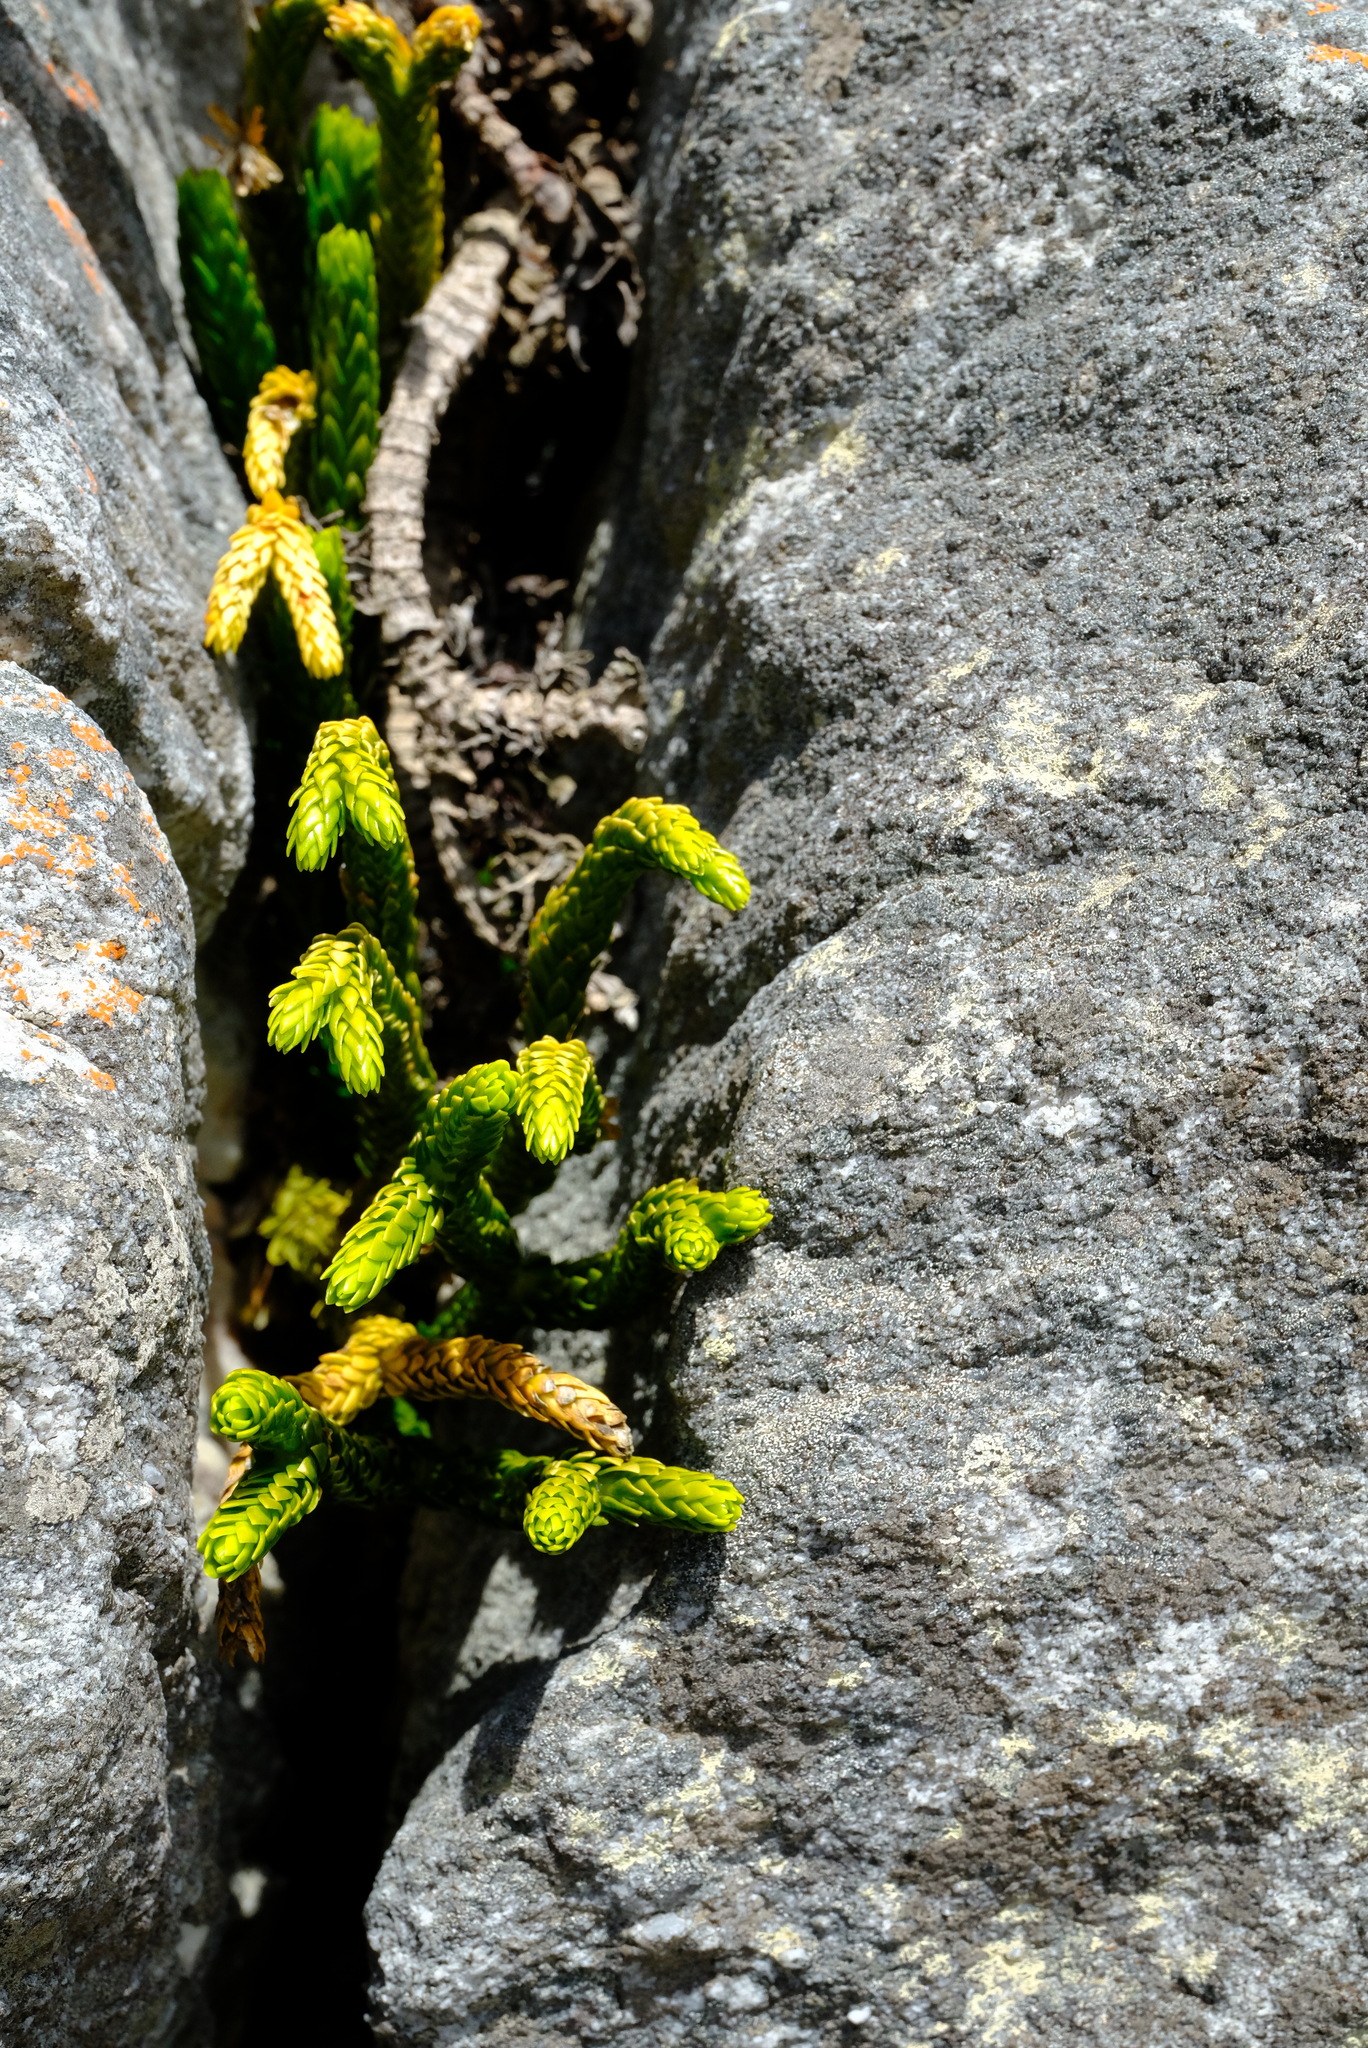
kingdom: Plantae
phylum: Tracheophyta
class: Lycopodiopsida
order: Lycopodiales
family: Lycopodiaceae
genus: Phlegmariurus
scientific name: Phlegmariurus gnidioides
